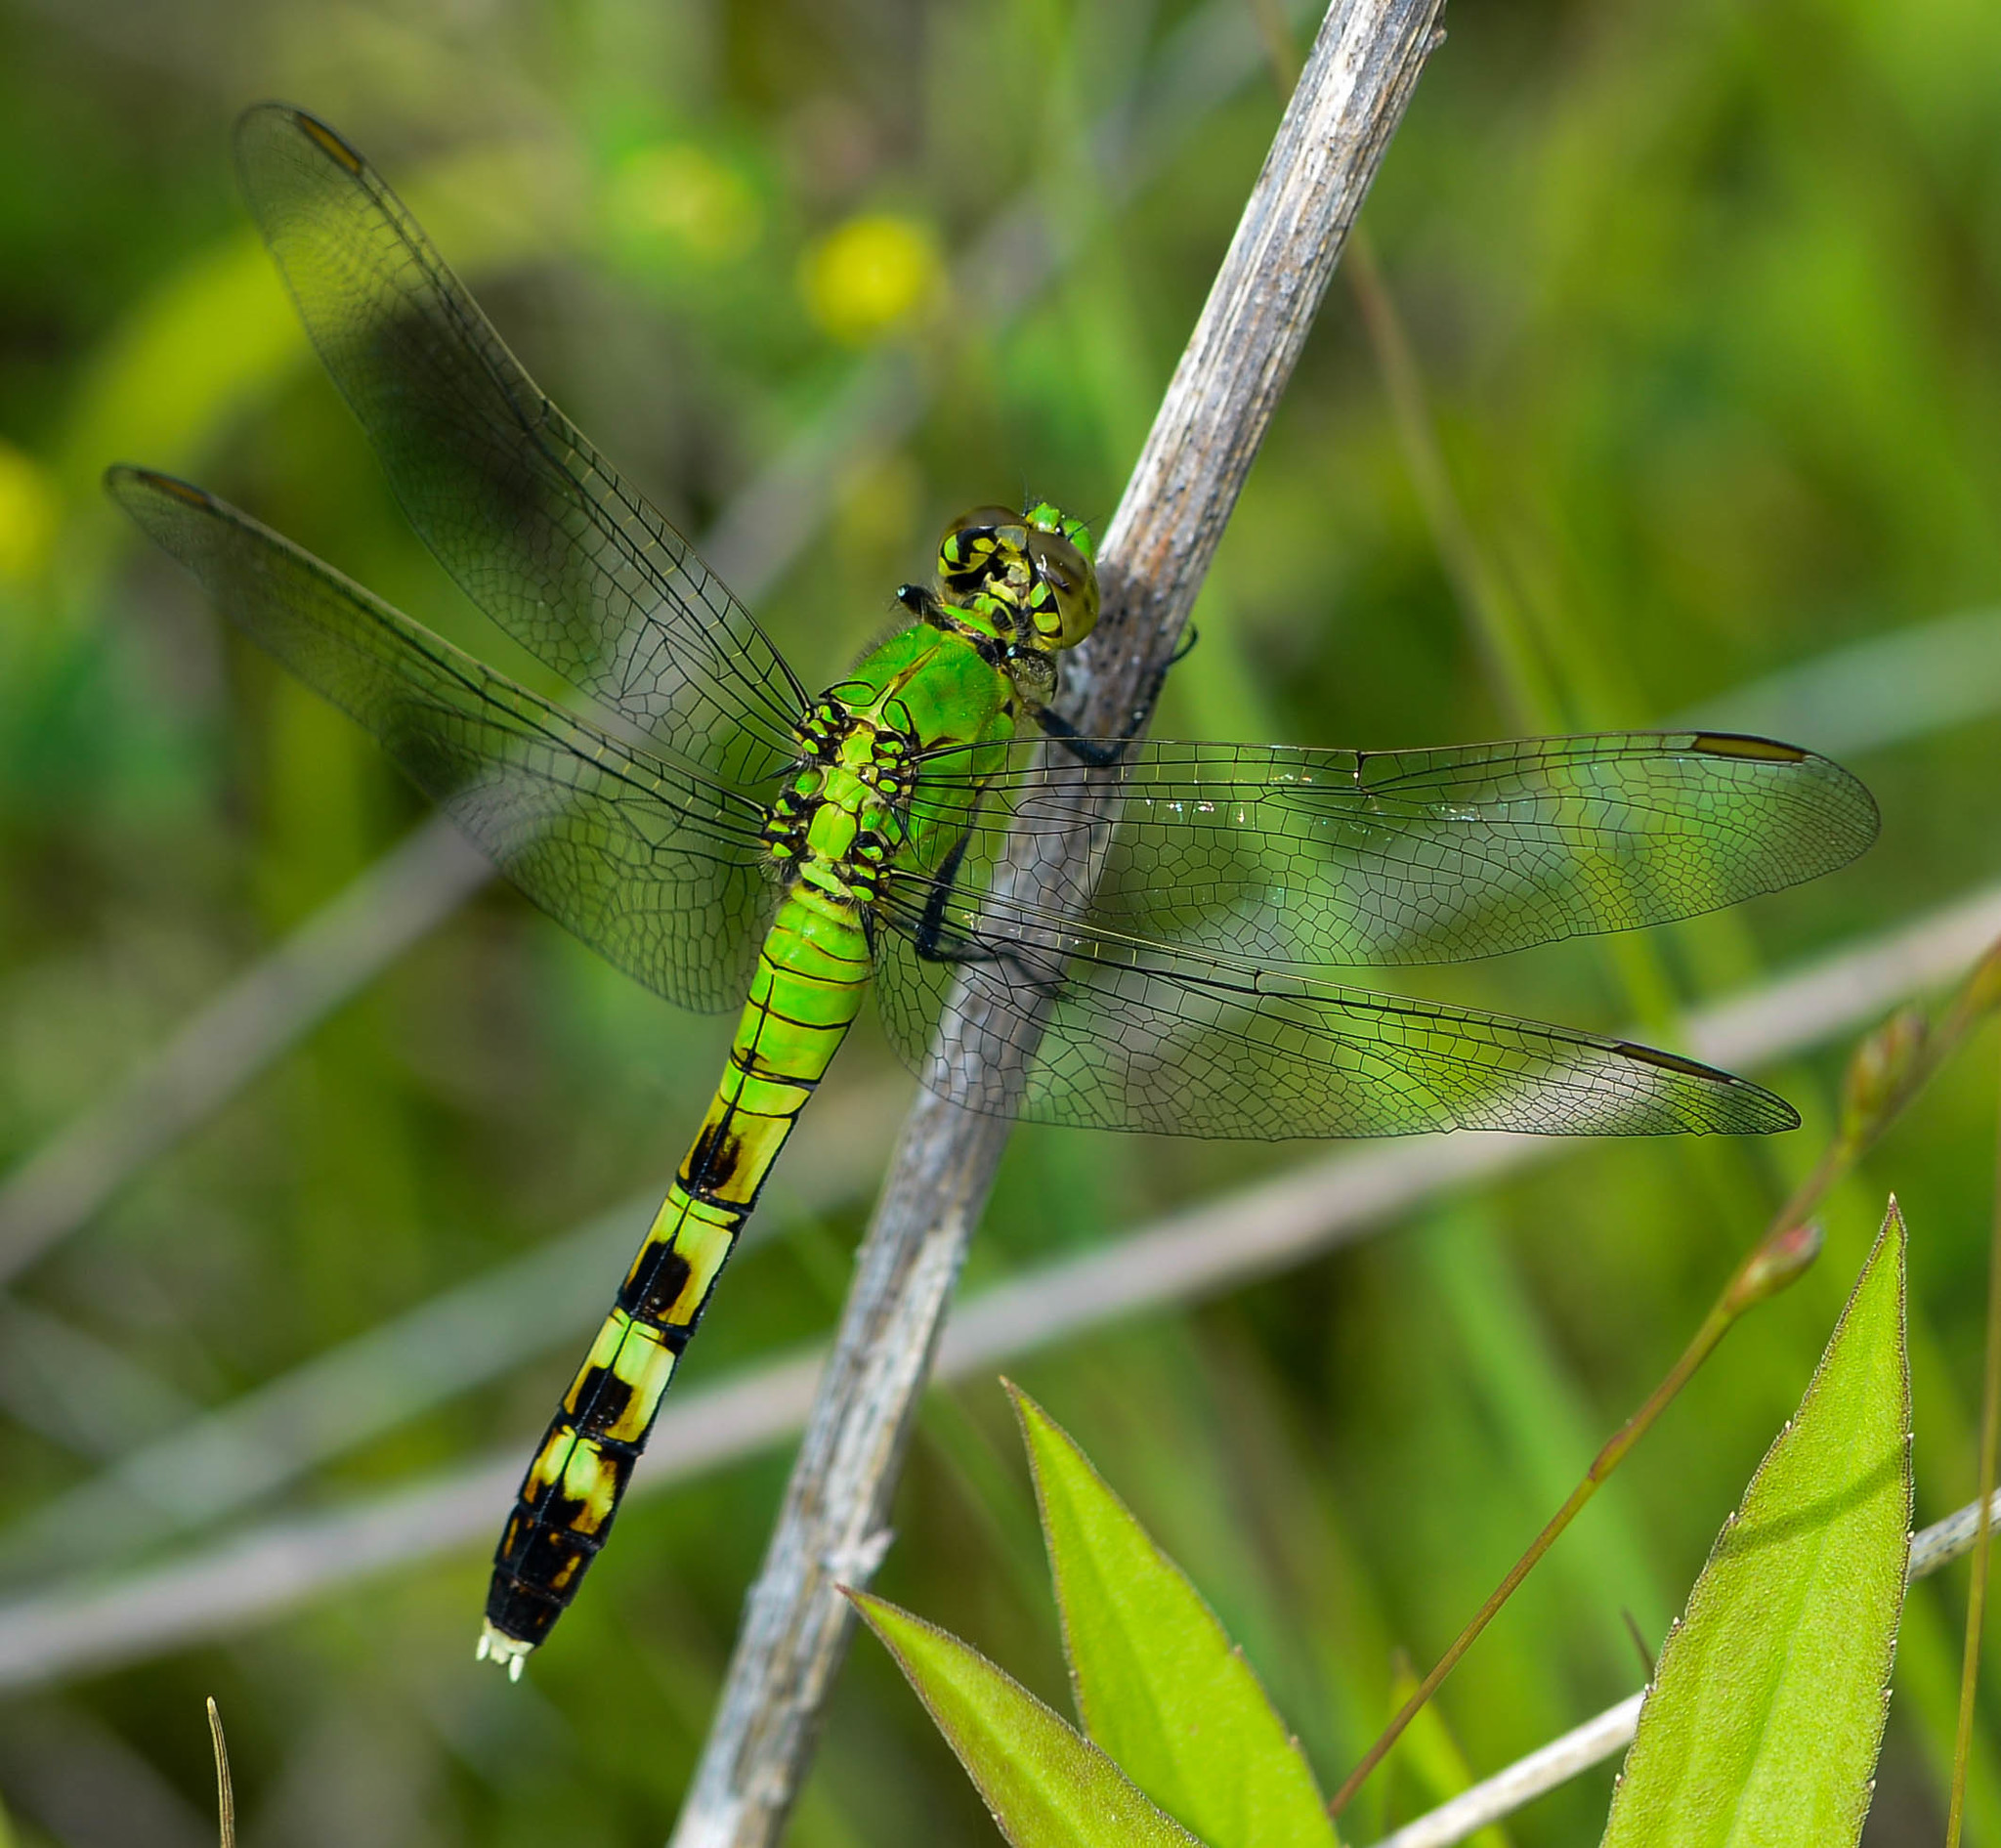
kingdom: Animalia
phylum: Arthropoda
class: Insecta
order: Odonata
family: Libellulidae
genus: Erythemis
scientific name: Erythemis simplicicollis
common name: Eastern pondhawk
